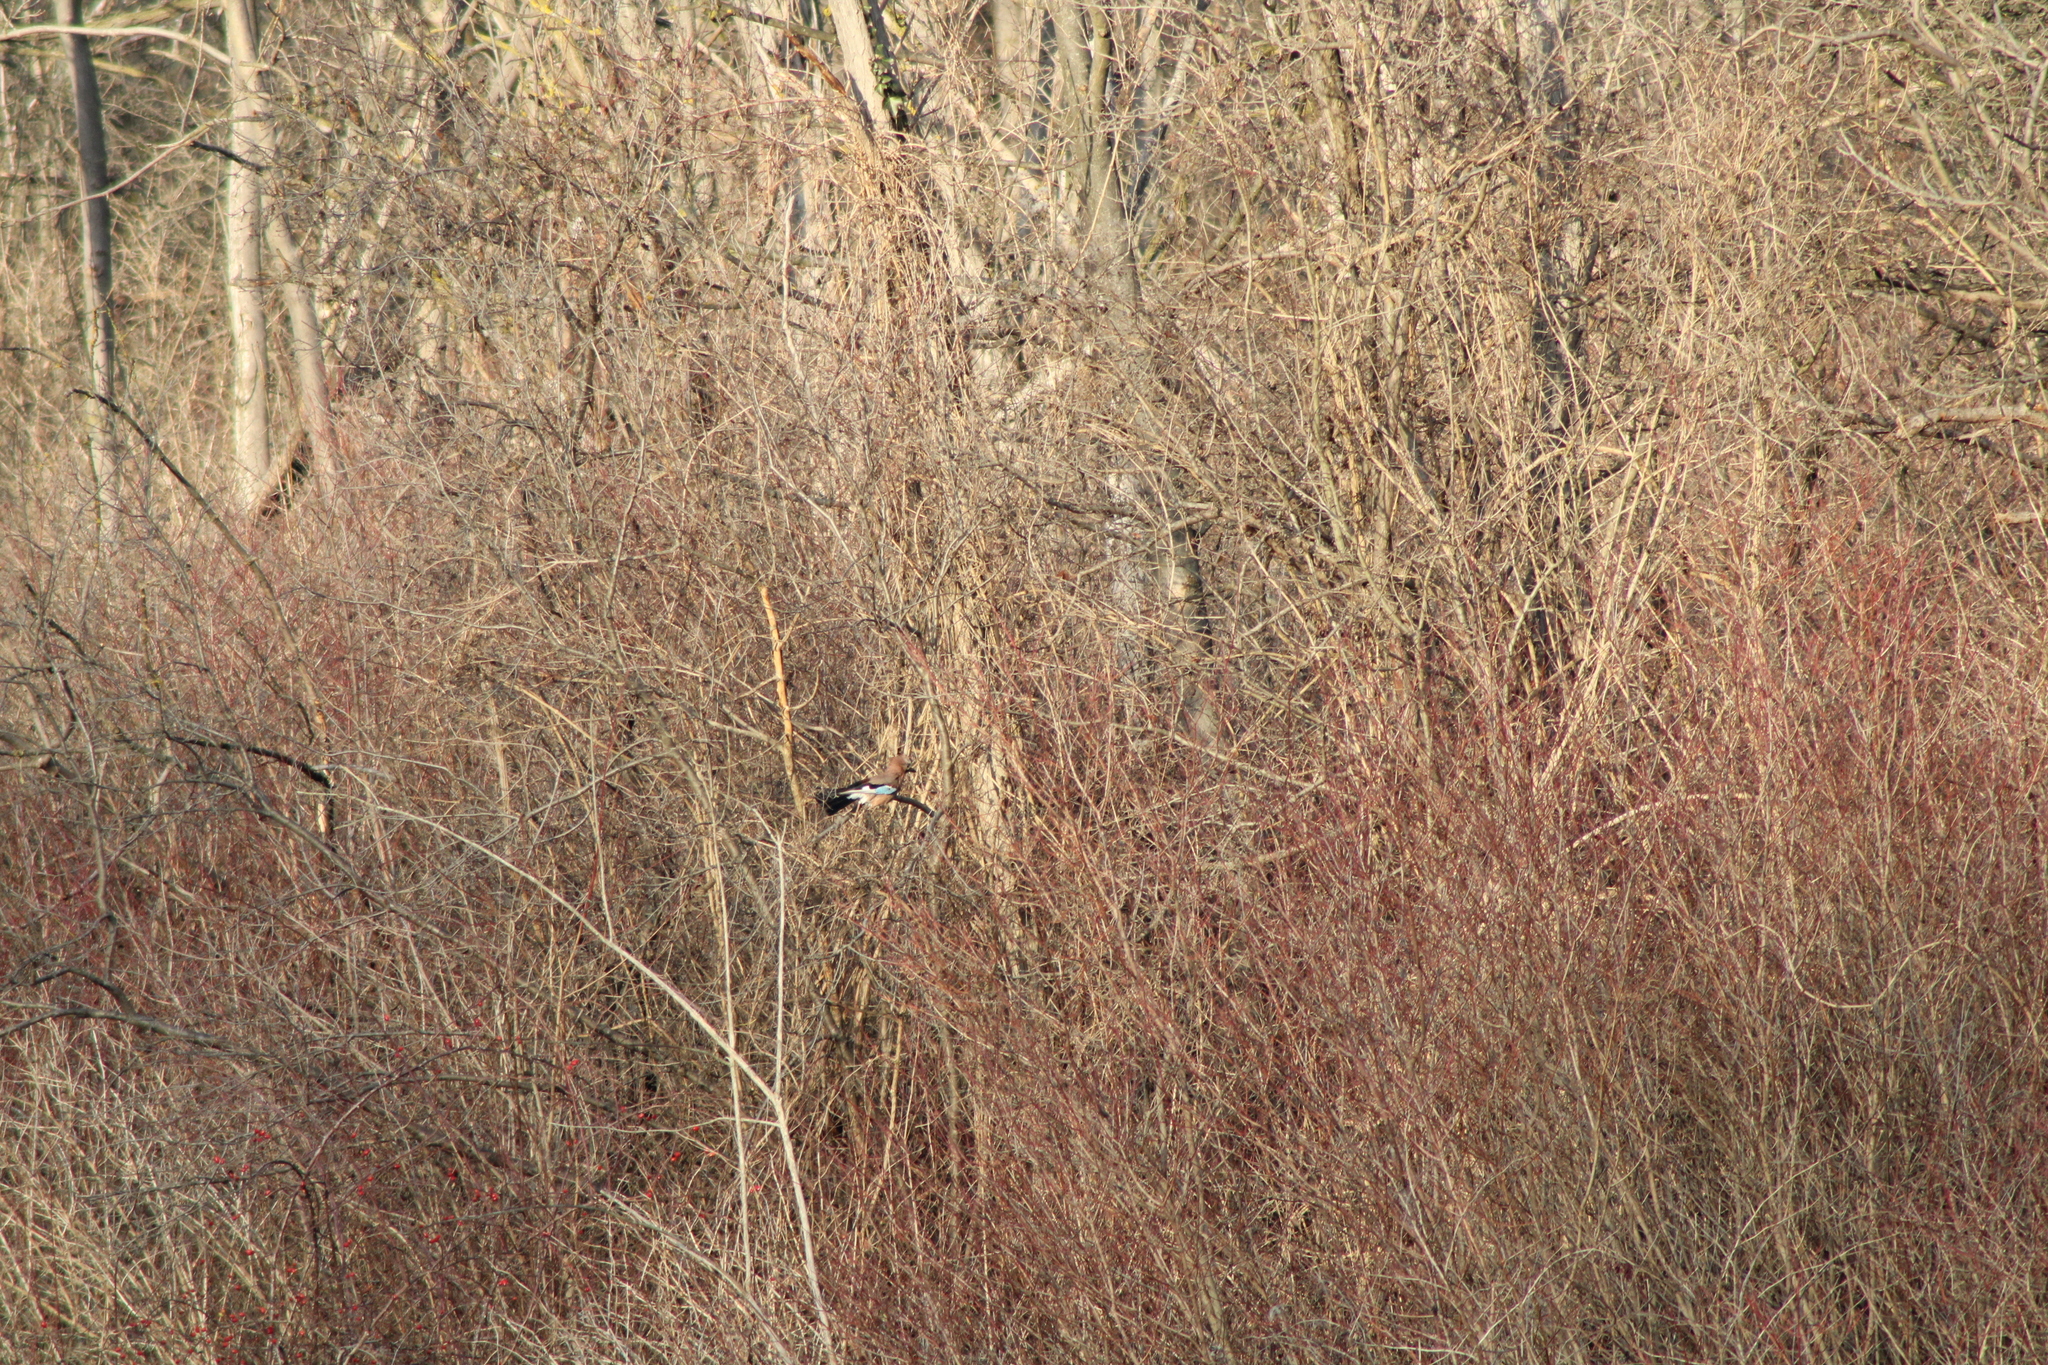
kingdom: Animalia
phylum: Chordata
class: Aves
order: Passeriformes
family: Corvidae
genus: Garrulus
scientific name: Garrulus glandarius
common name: Eurasian jay
